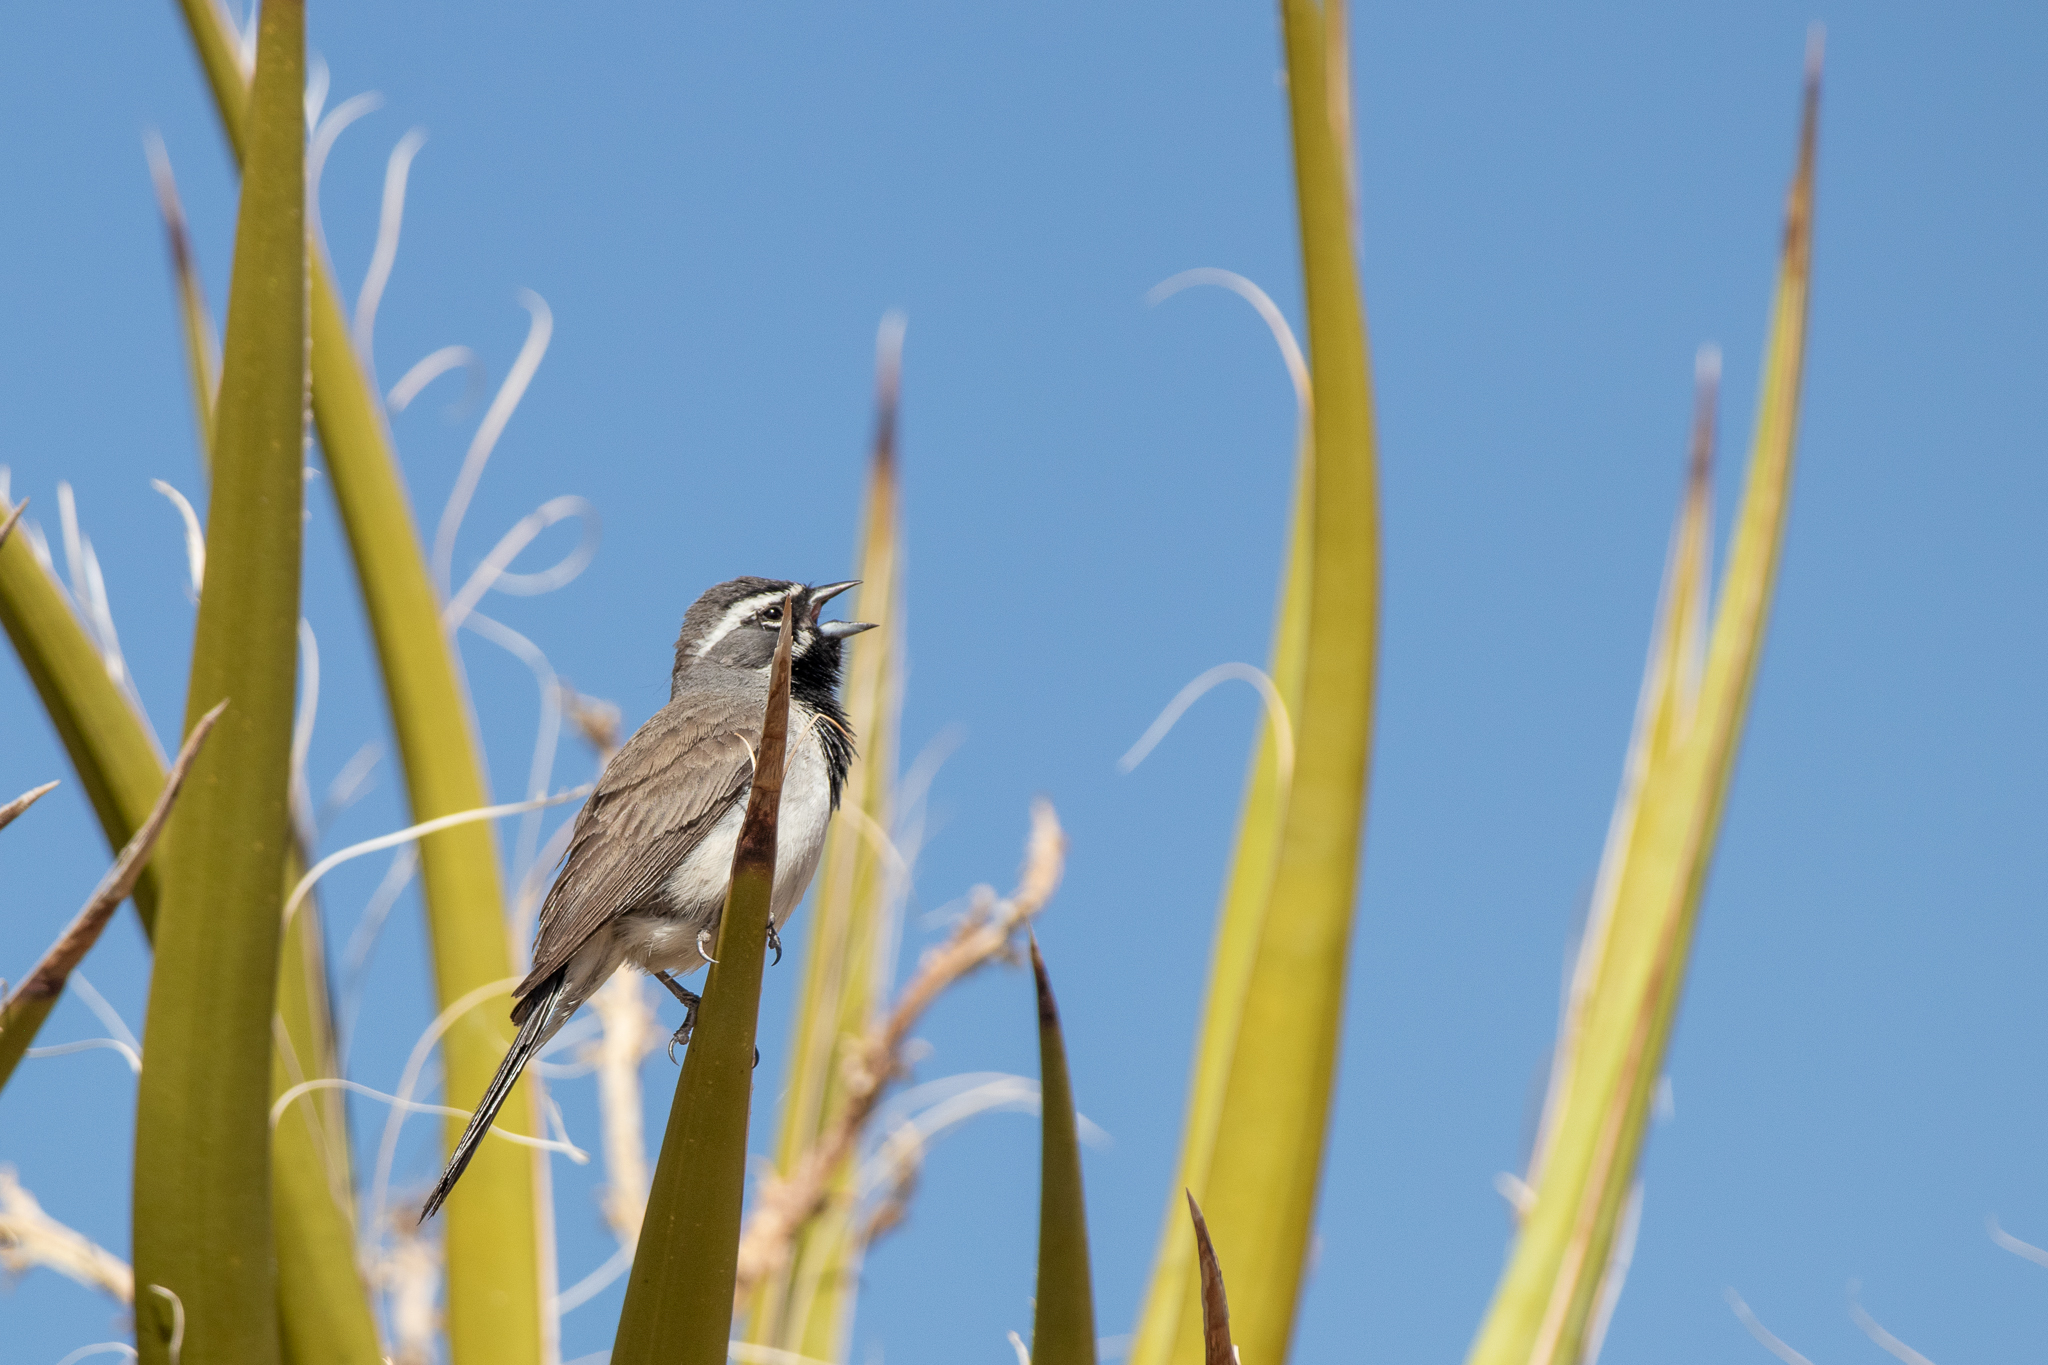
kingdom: Animalia
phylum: Chordata
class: Aves
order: Passeriformes
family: Passerellidae
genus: Amphispiza
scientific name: Amphispiza bilineata
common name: Black-throated sparrow
